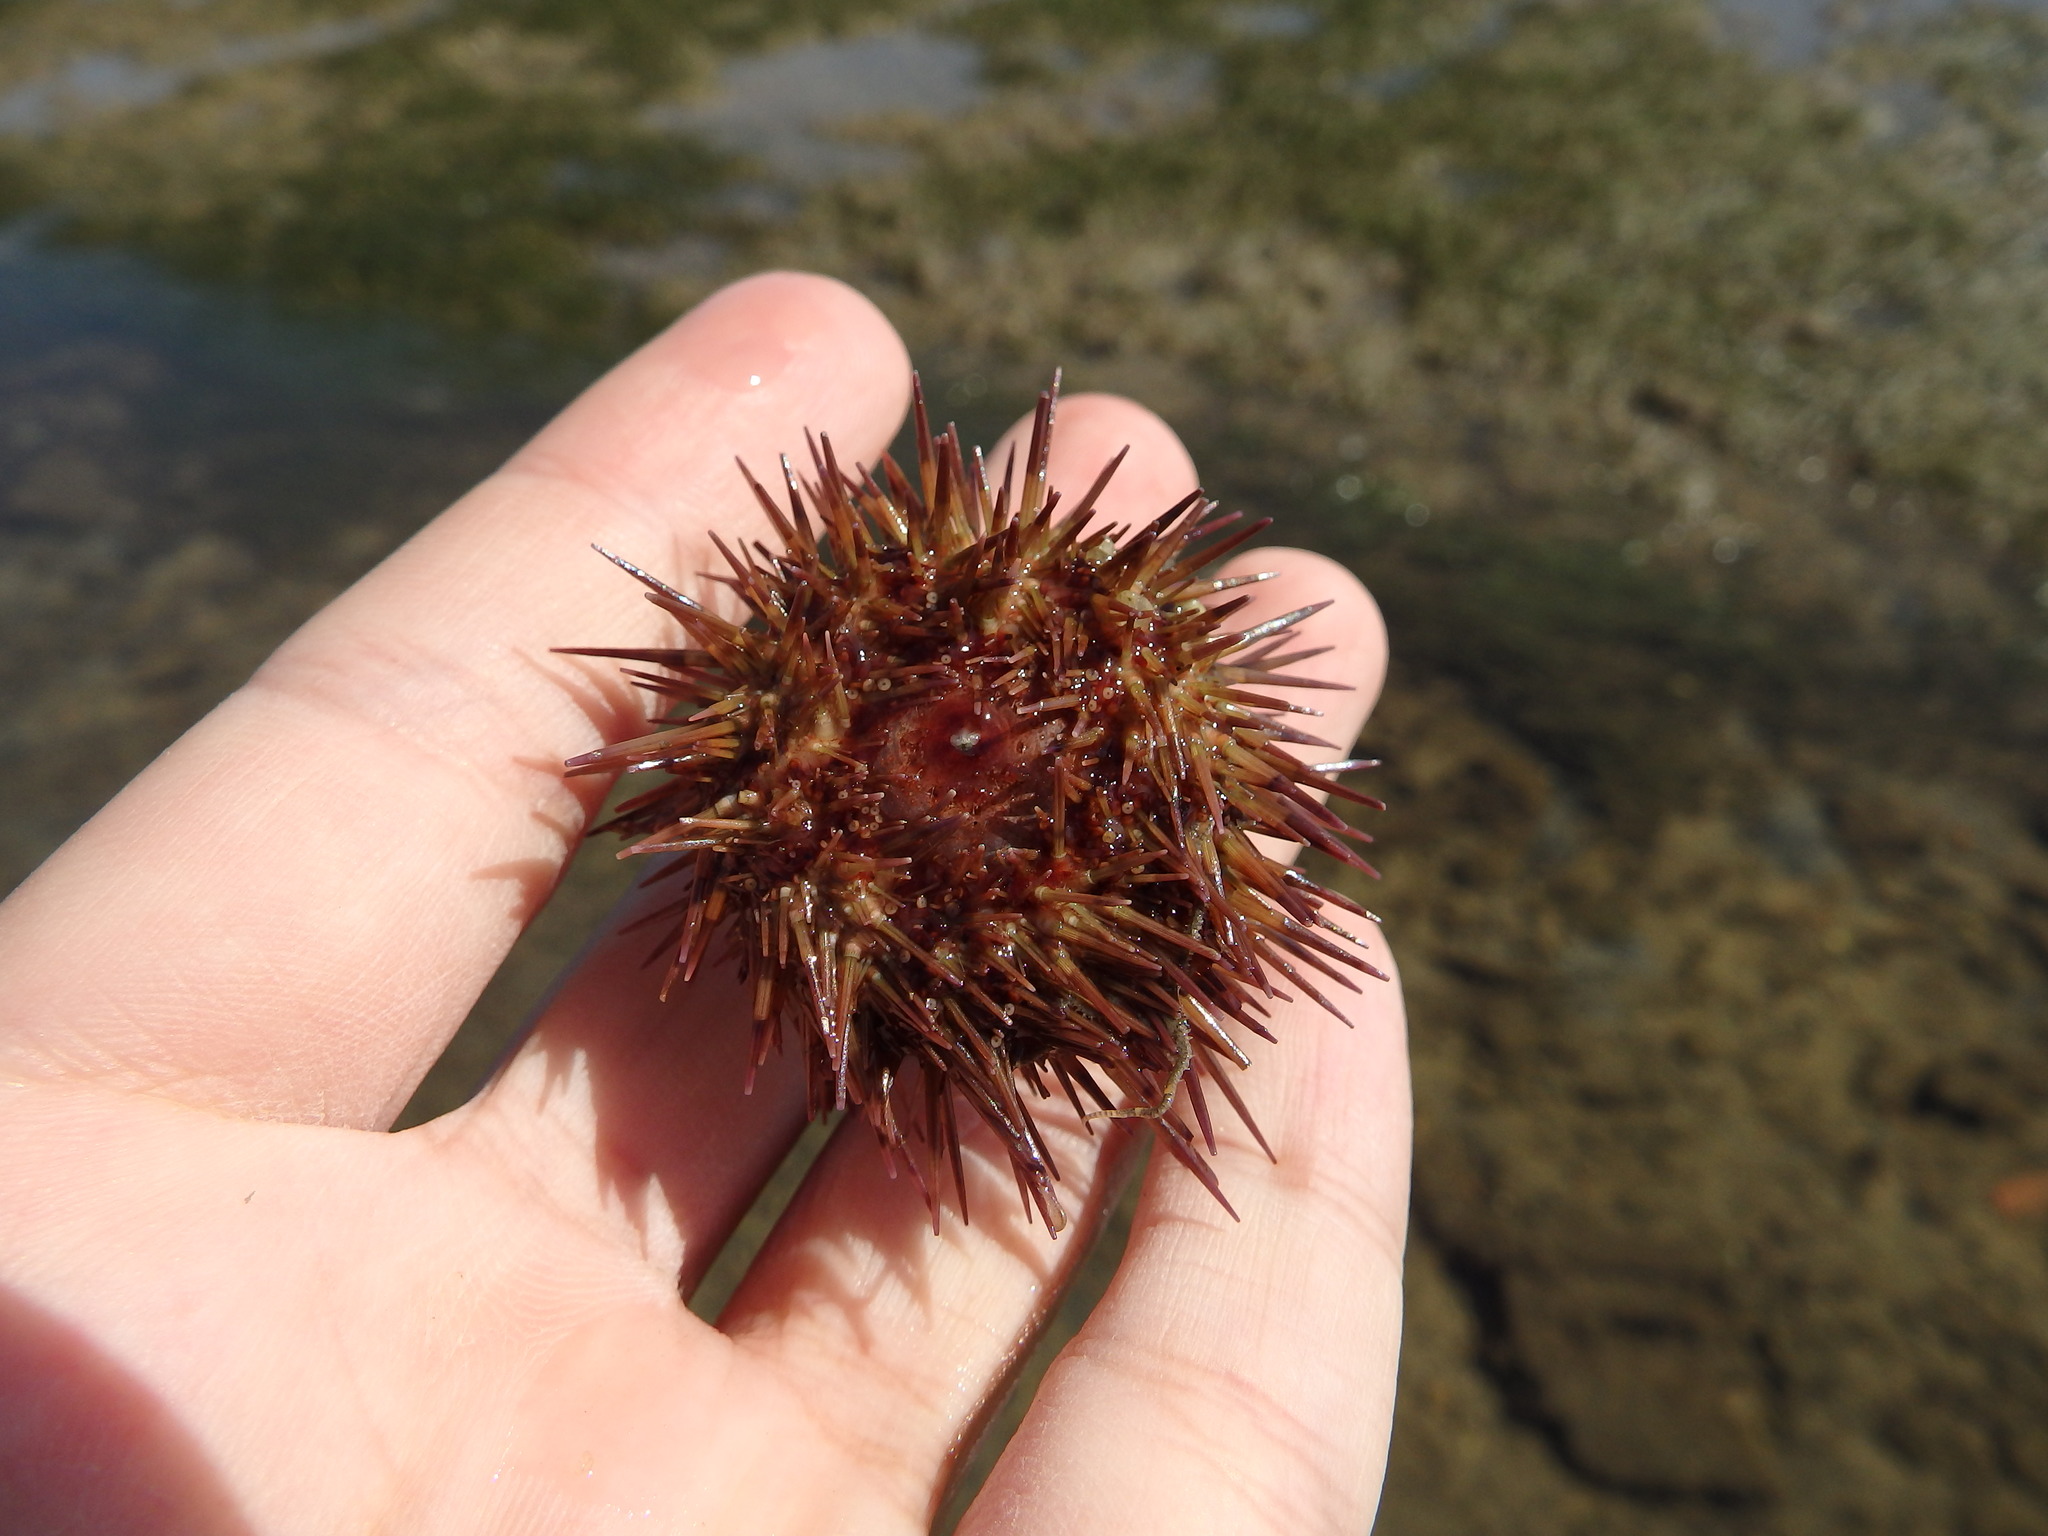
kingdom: Animalia
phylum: Echinodermata
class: Echinoidea
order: Camarodonta
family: Parechinidae
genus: Paracentrotus
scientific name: Paracentrotus lividus
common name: Purple sea urchin
